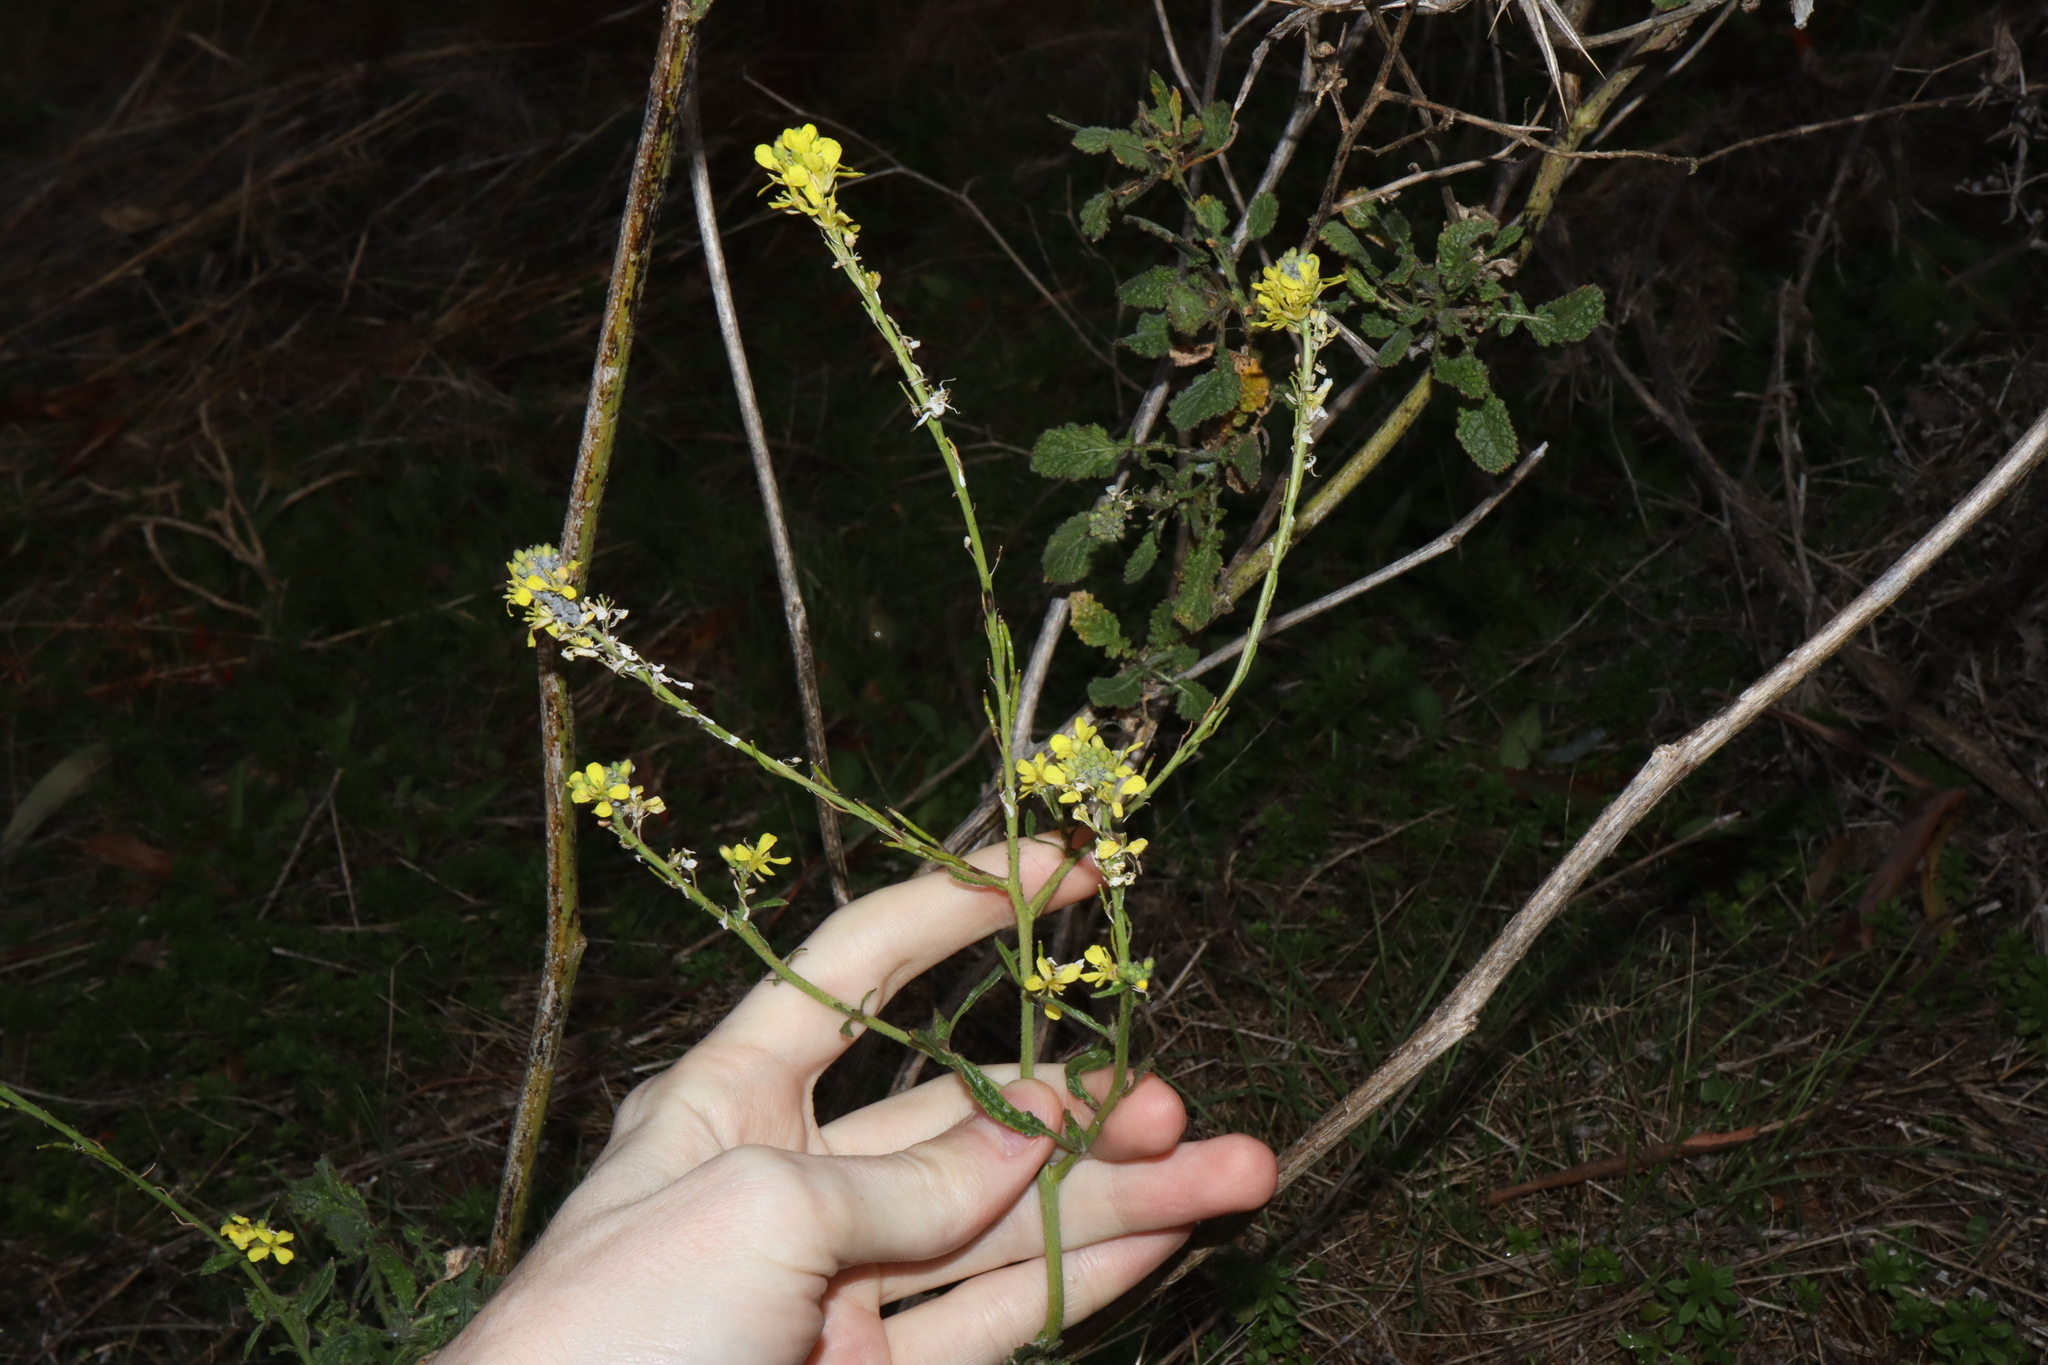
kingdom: Plantae
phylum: Tracheophyta
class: Magnoliopsida
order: Brassicales
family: Brassicaceae
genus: Hirschfeldia
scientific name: Hirschfeldia incana
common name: Hoary mustard
